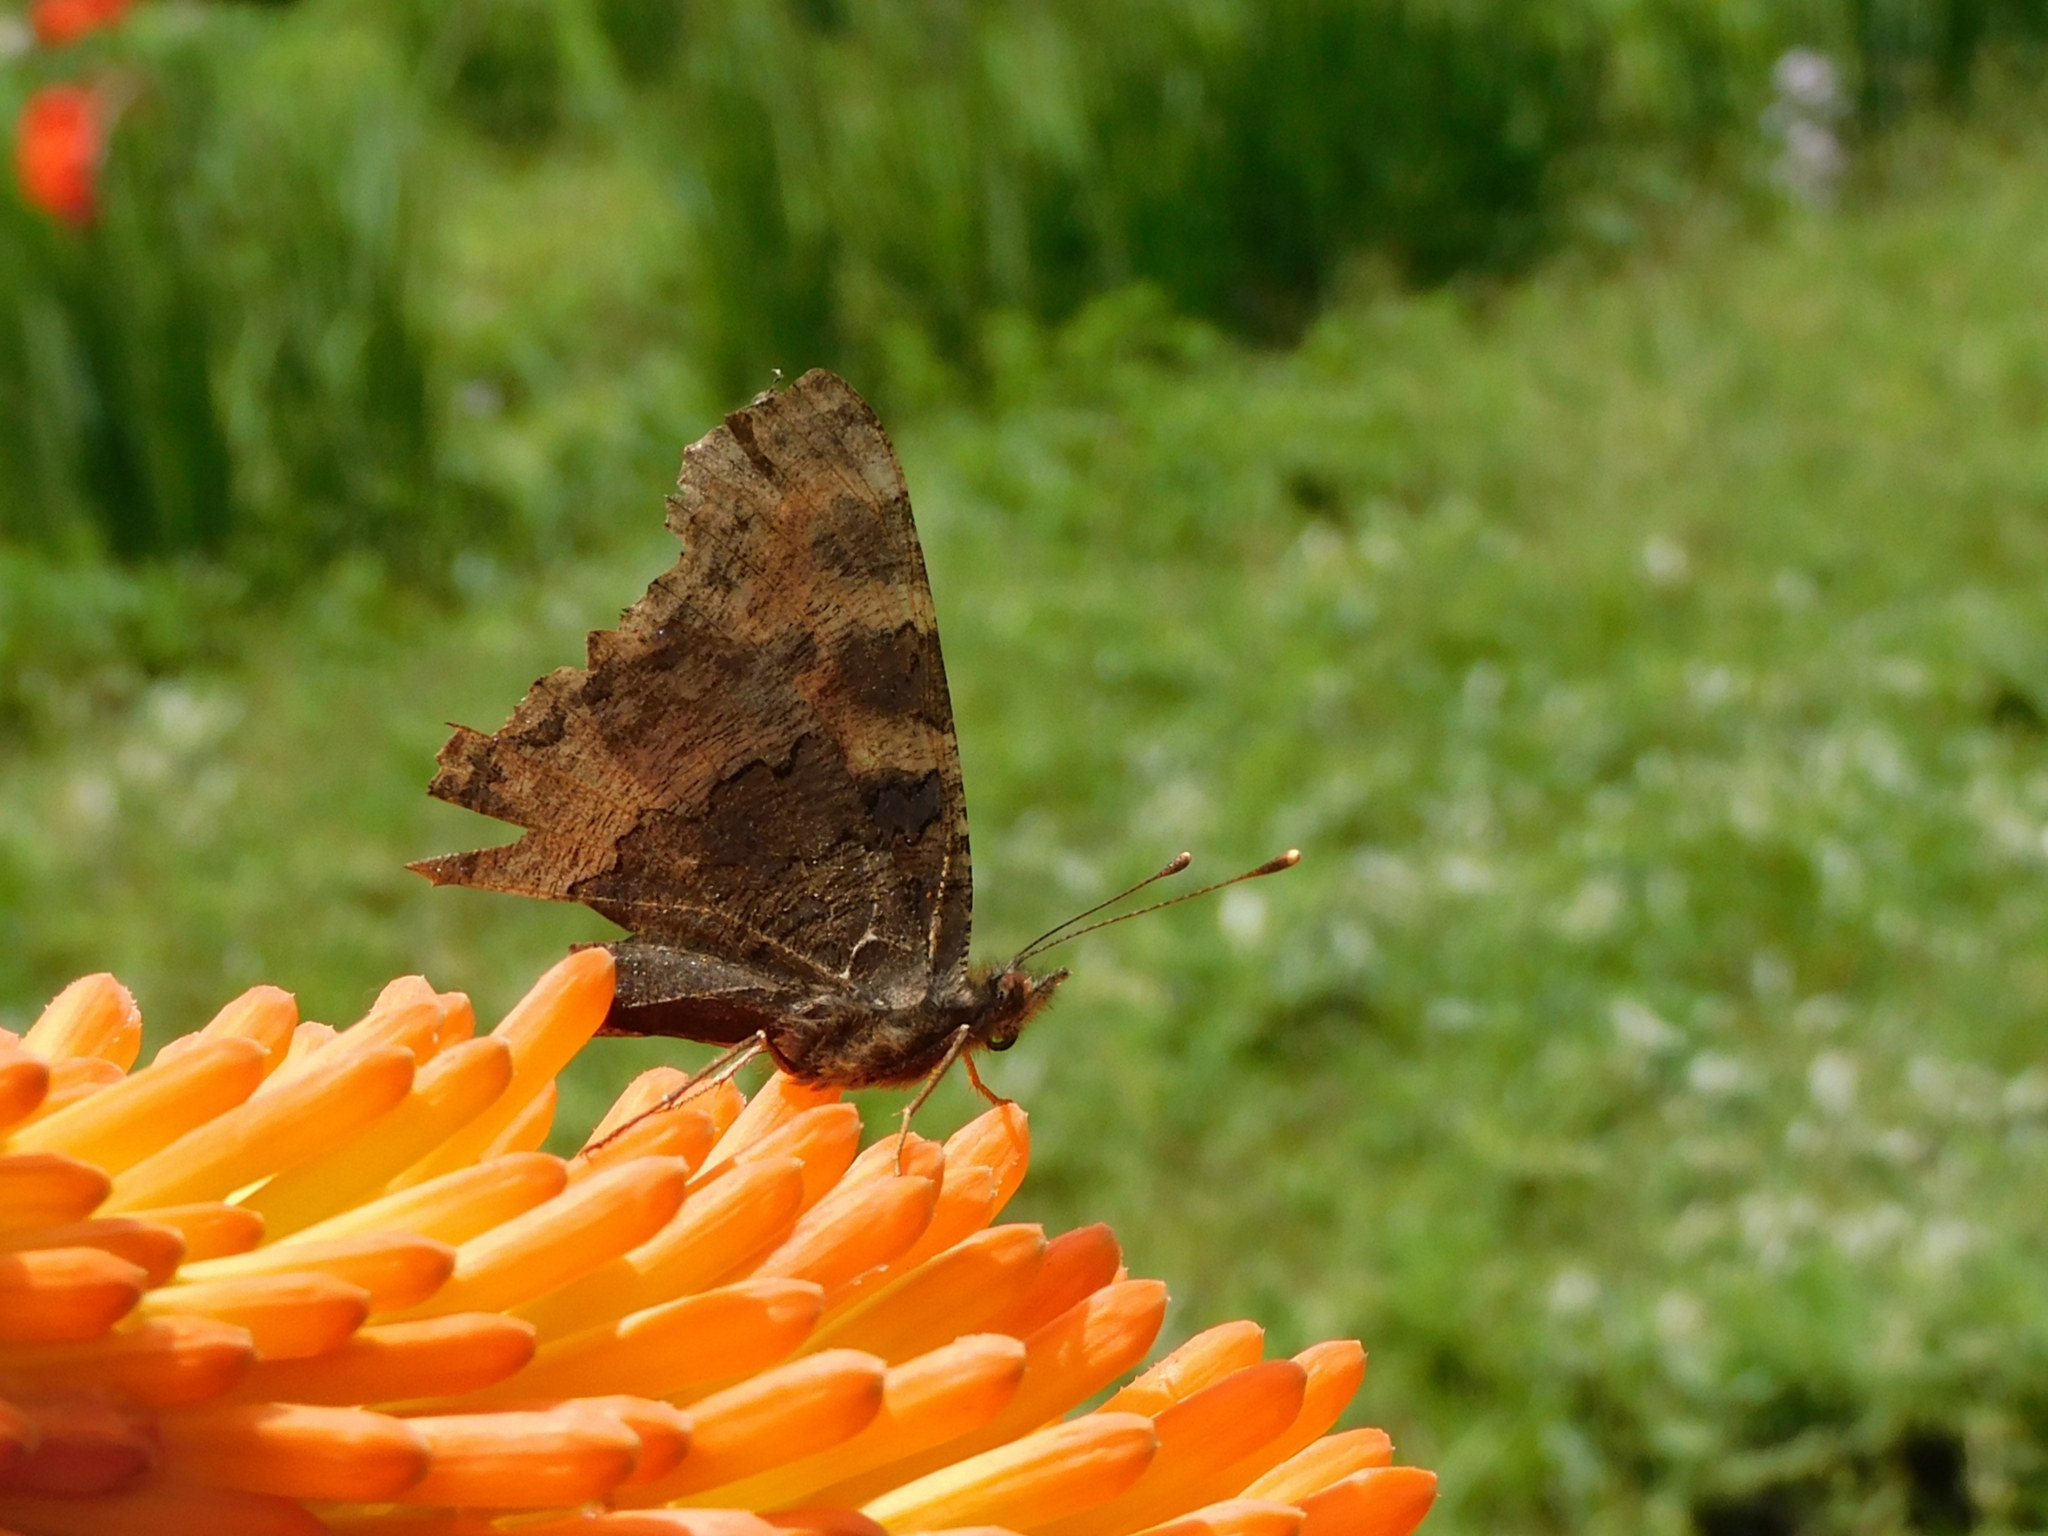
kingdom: Animalia
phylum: Arthropoda
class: Insecta
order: Lepidoptera
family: Nymphalidae
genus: Aglais
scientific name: Aglais caschmirensis
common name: Indian tortoiseshell
